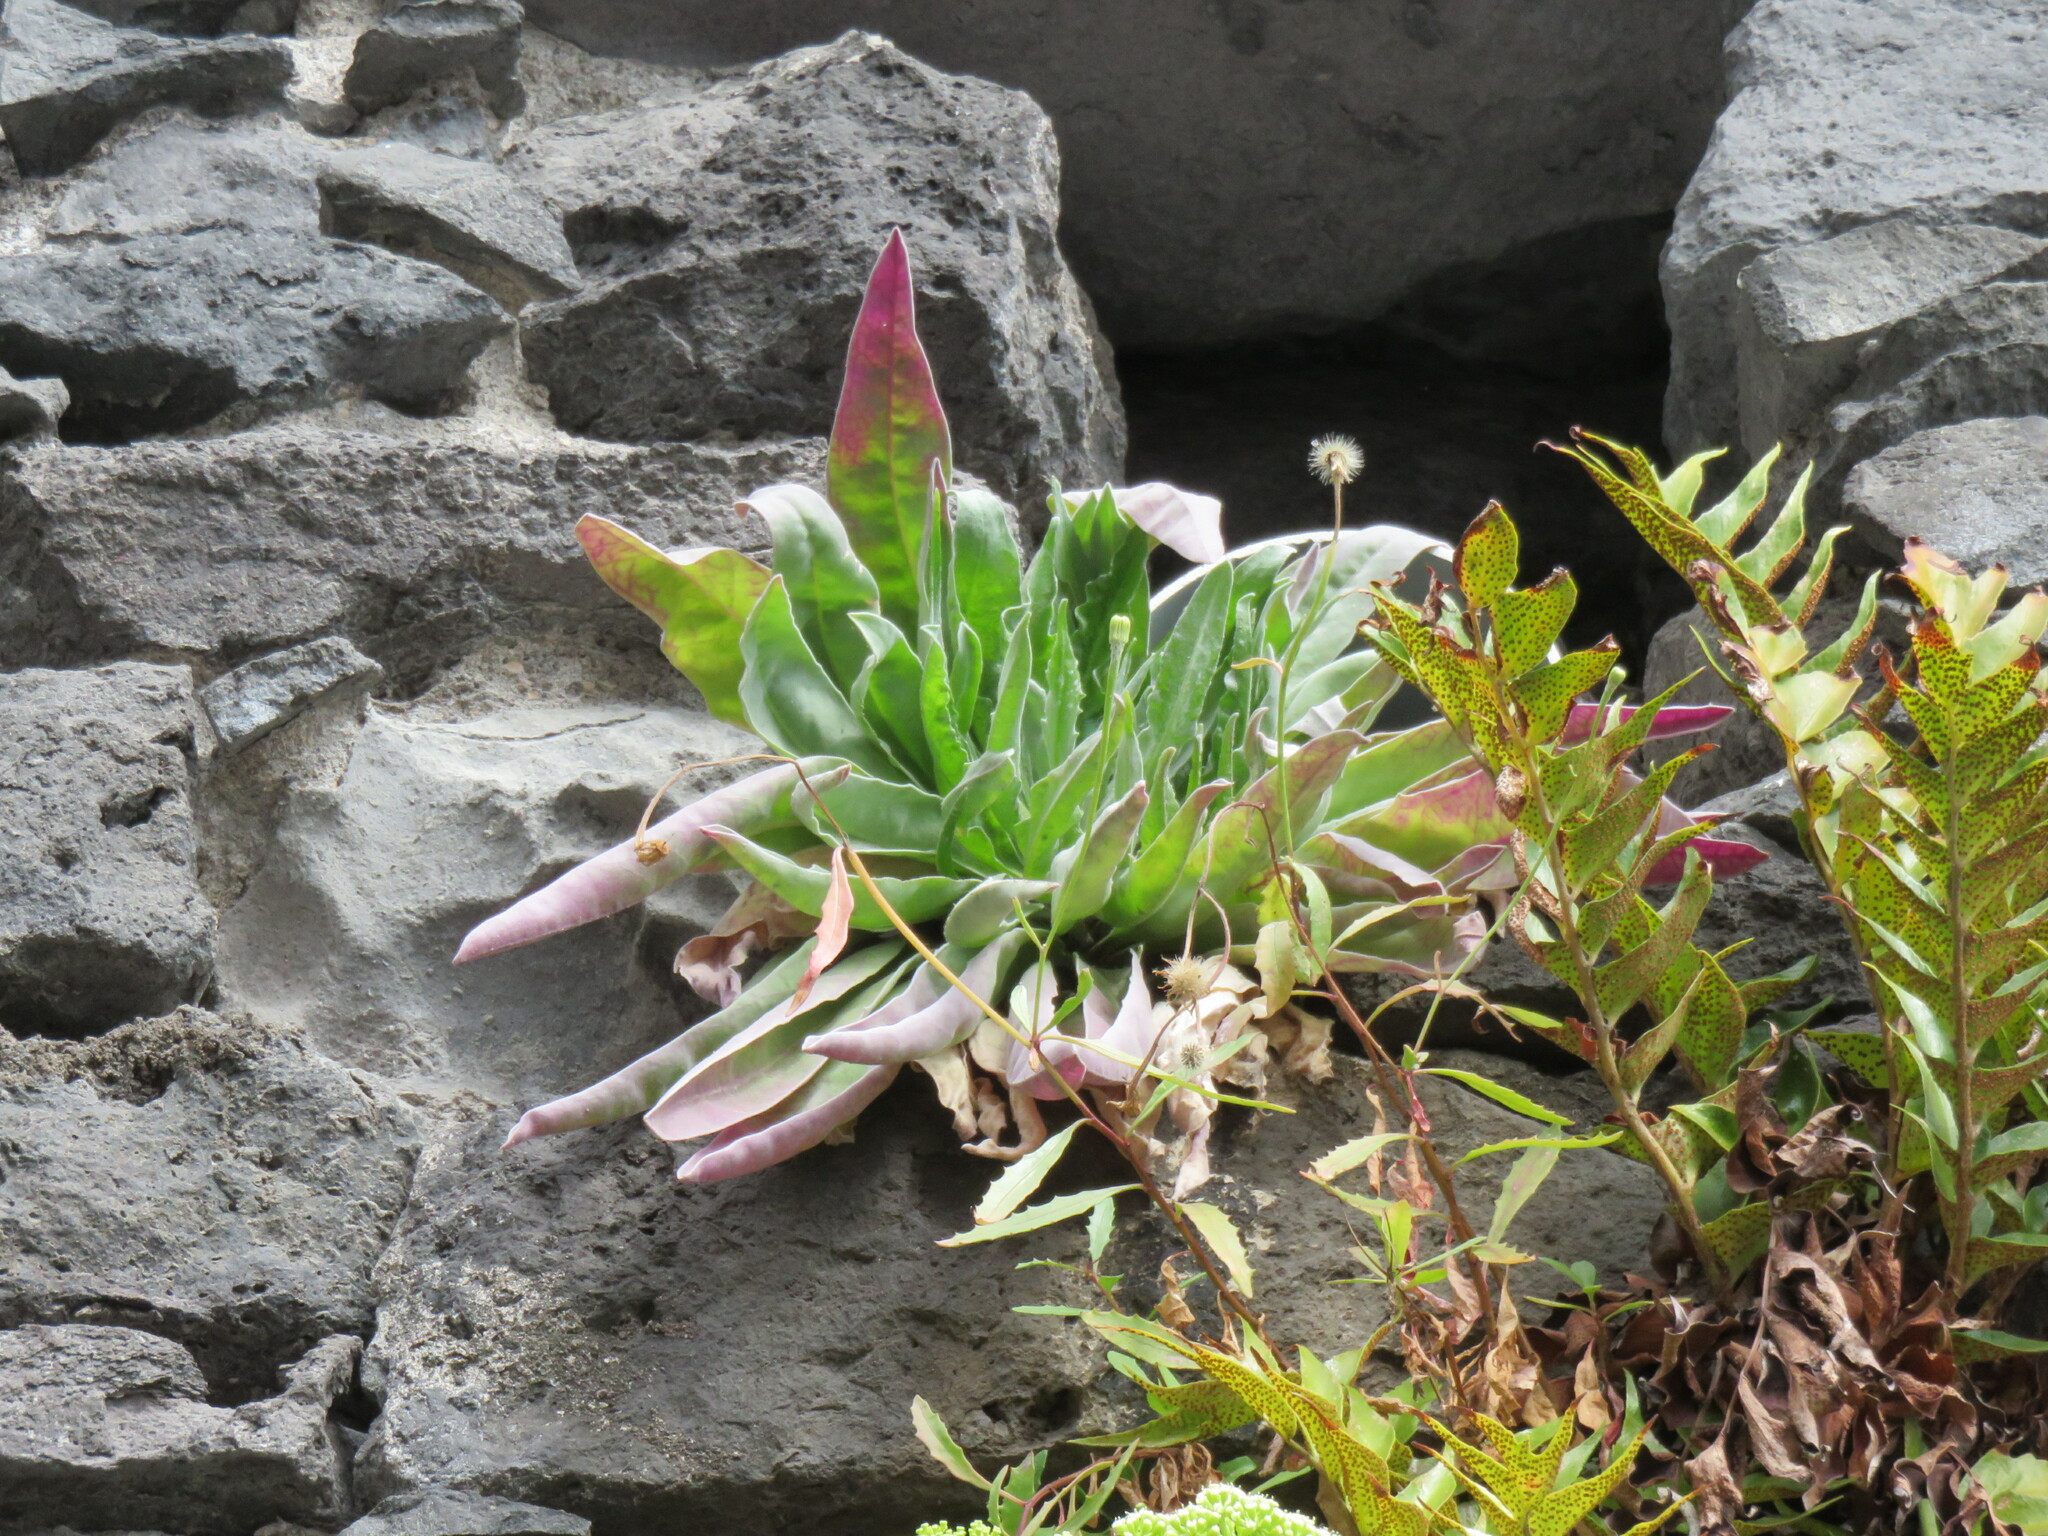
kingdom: Plantae
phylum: Tracheophyta
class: Magnoliopsida
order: Asterales
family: Asteraceae
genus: Andryala
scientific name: Andryala glandulosa
